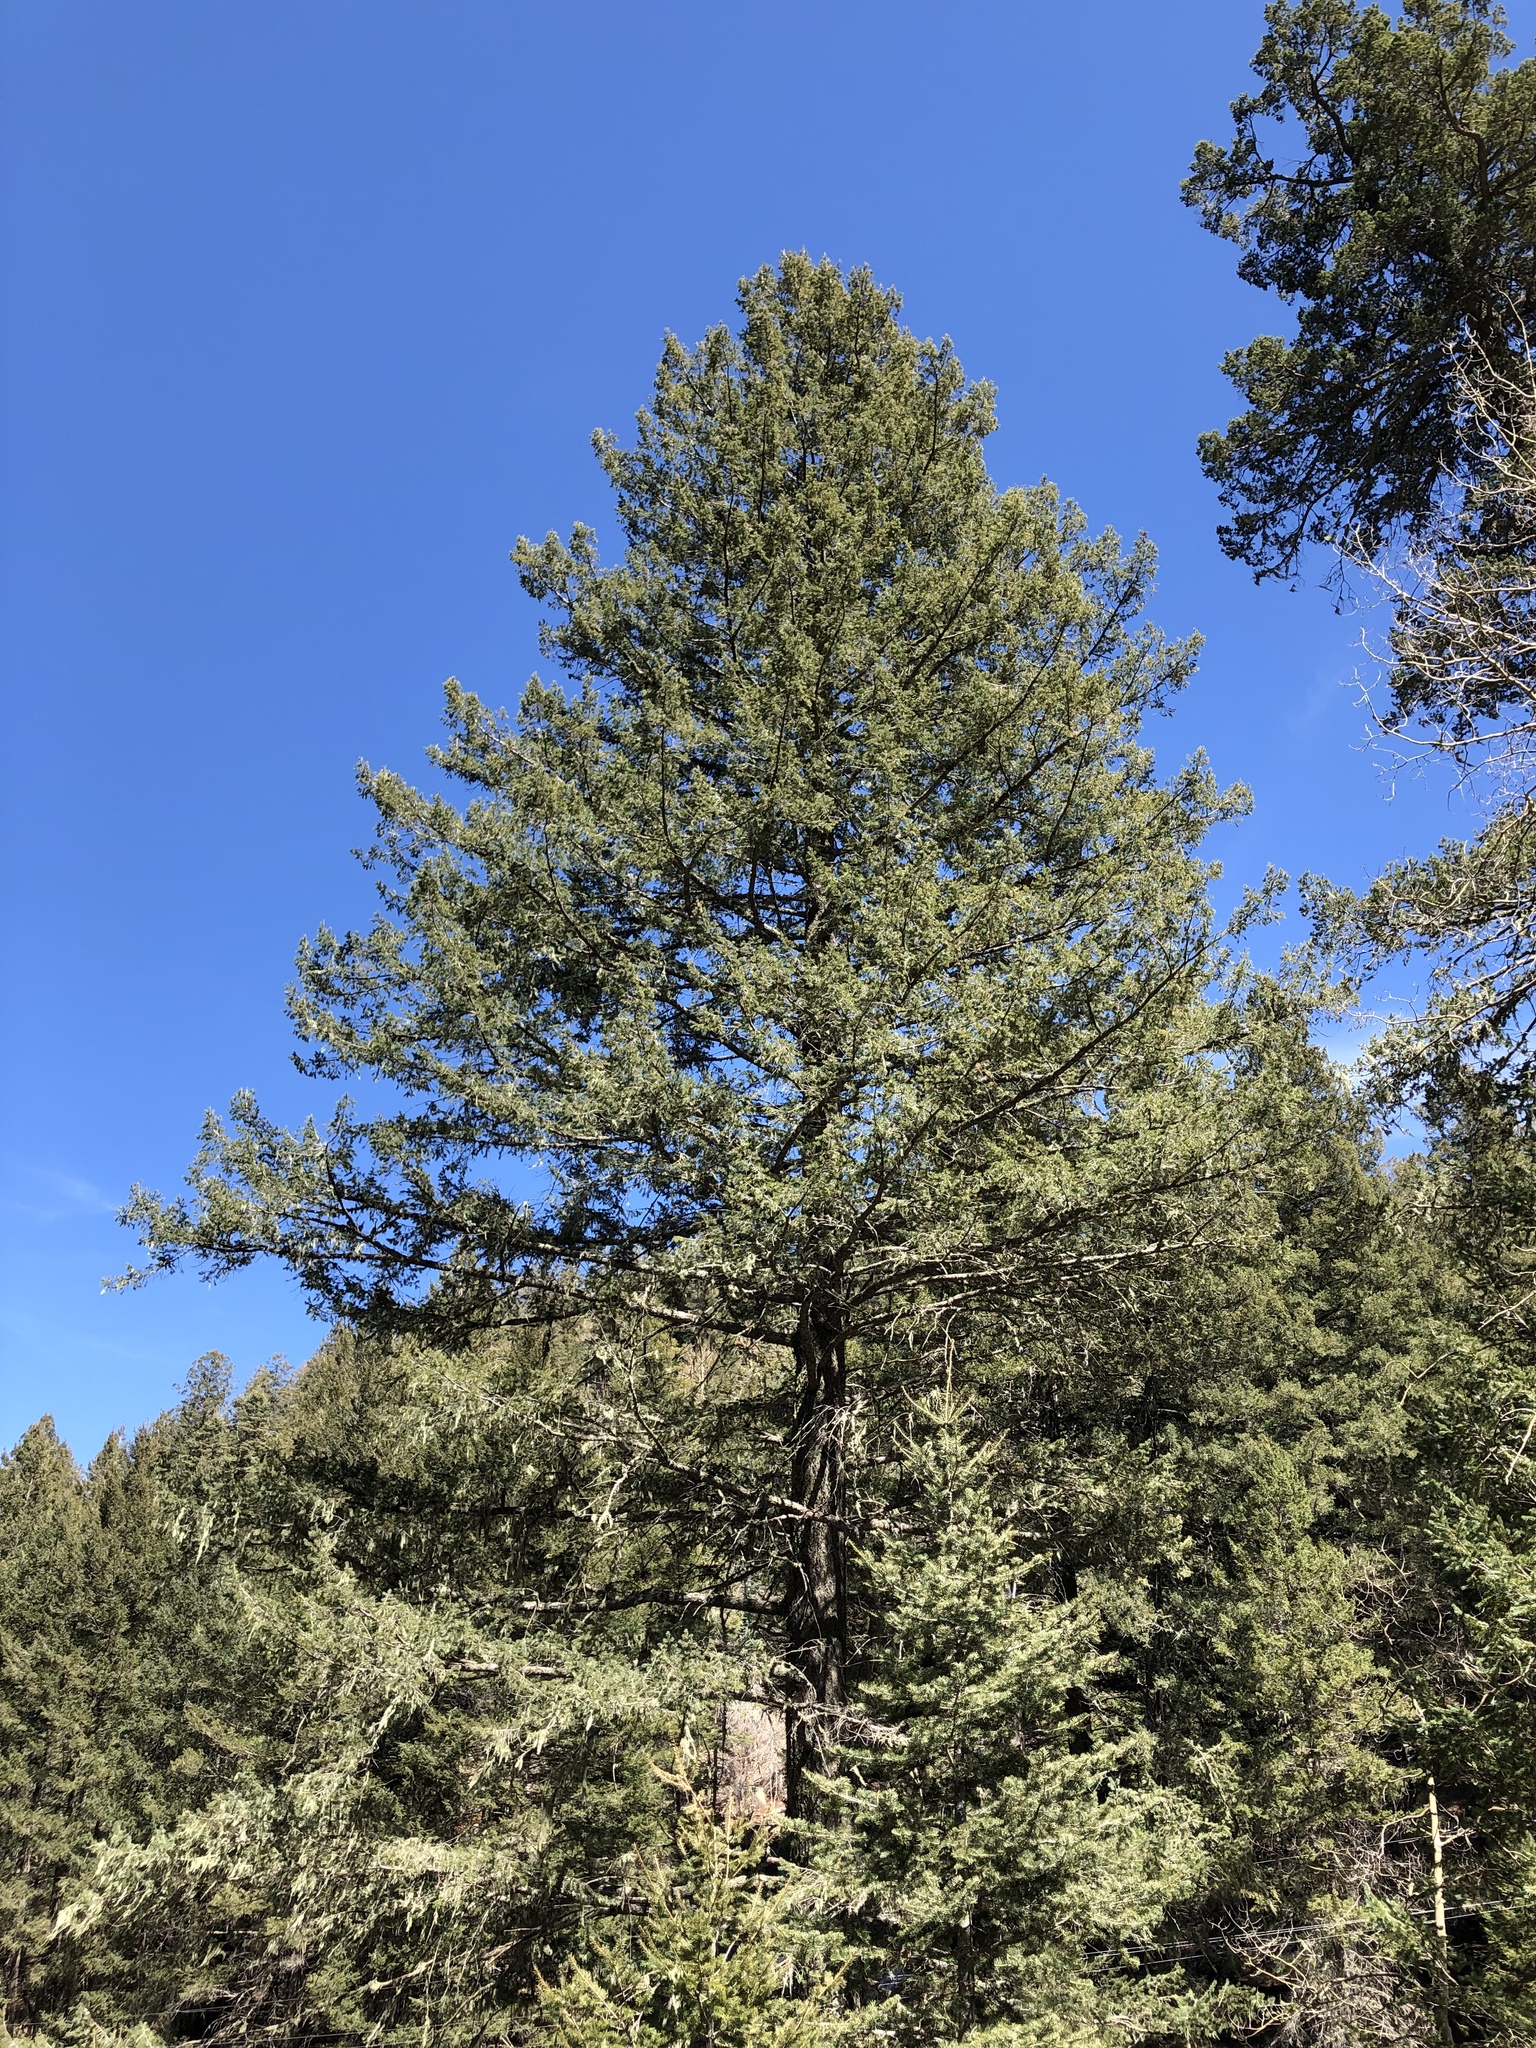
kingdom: Plantae
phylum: Tracheophyta
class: Pinopsida
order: Pinales
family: Pinaceae
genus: Pseudotsuga
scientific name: Pseudotsuga menziesii
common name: Douglas fir
